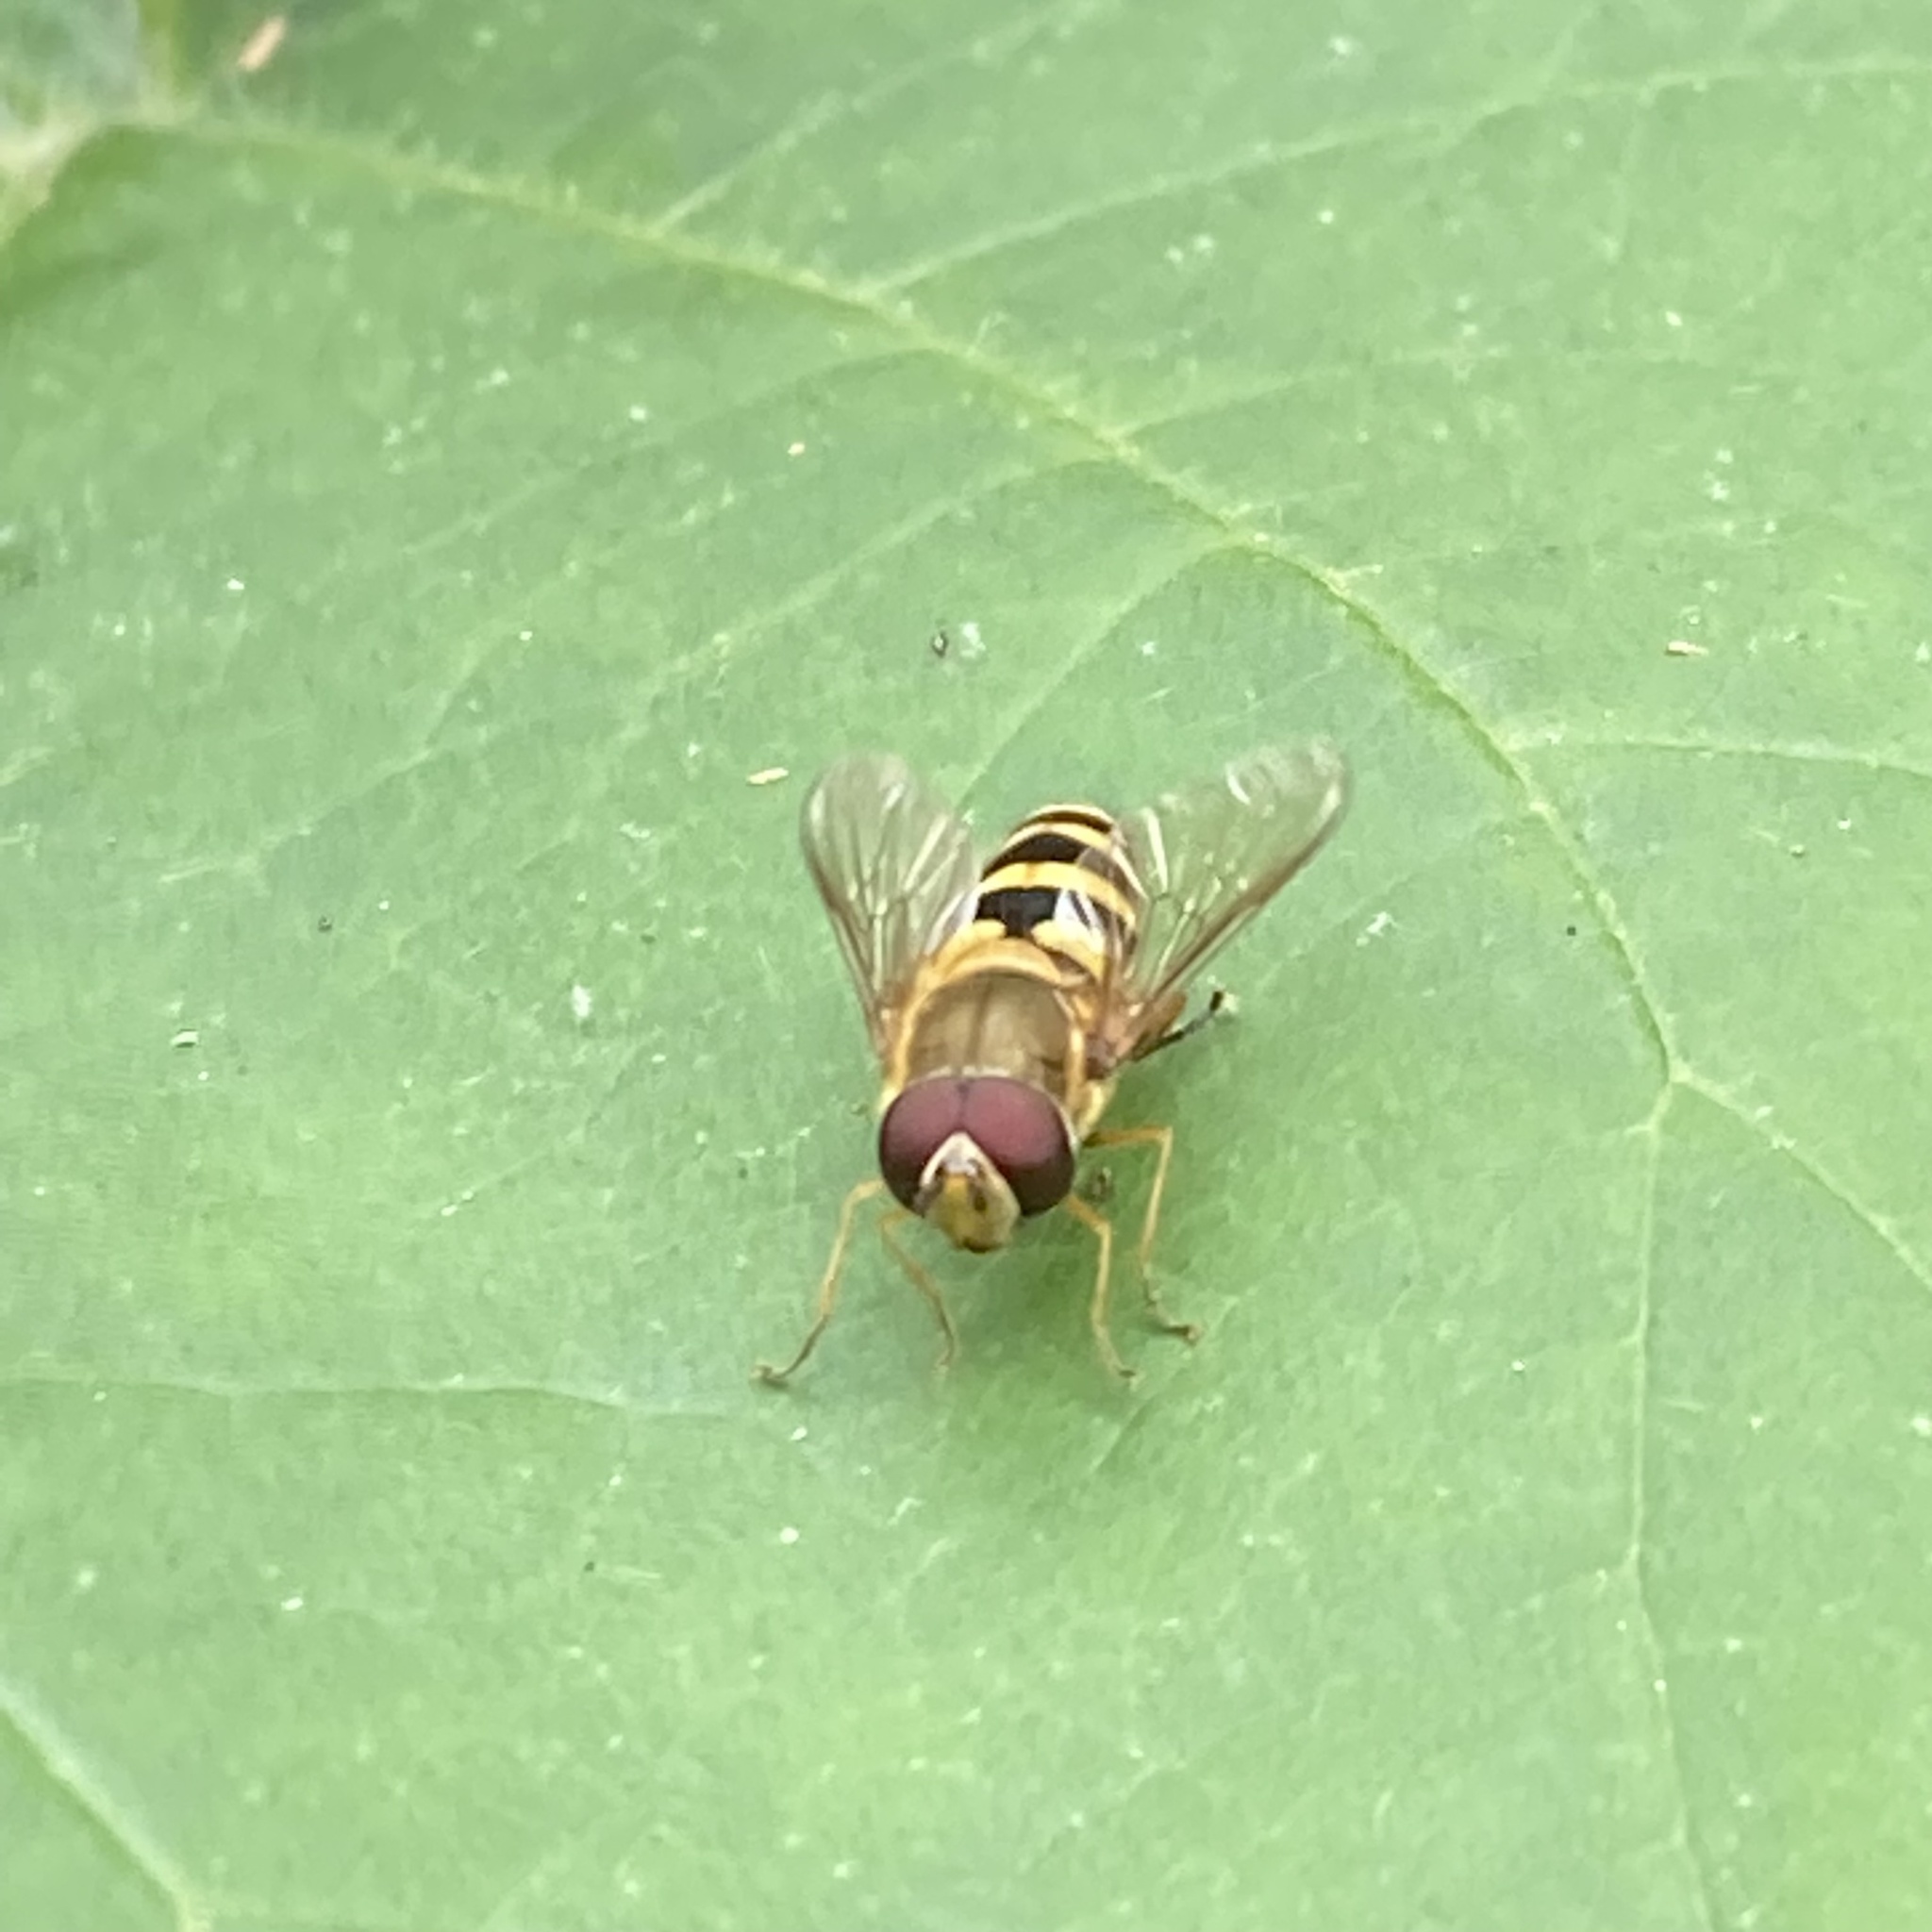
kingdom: Animalia
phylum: Arthropoda
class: Insecta
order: Diptera
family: Syrphidae
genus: Syrphus
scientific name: Syrphus
